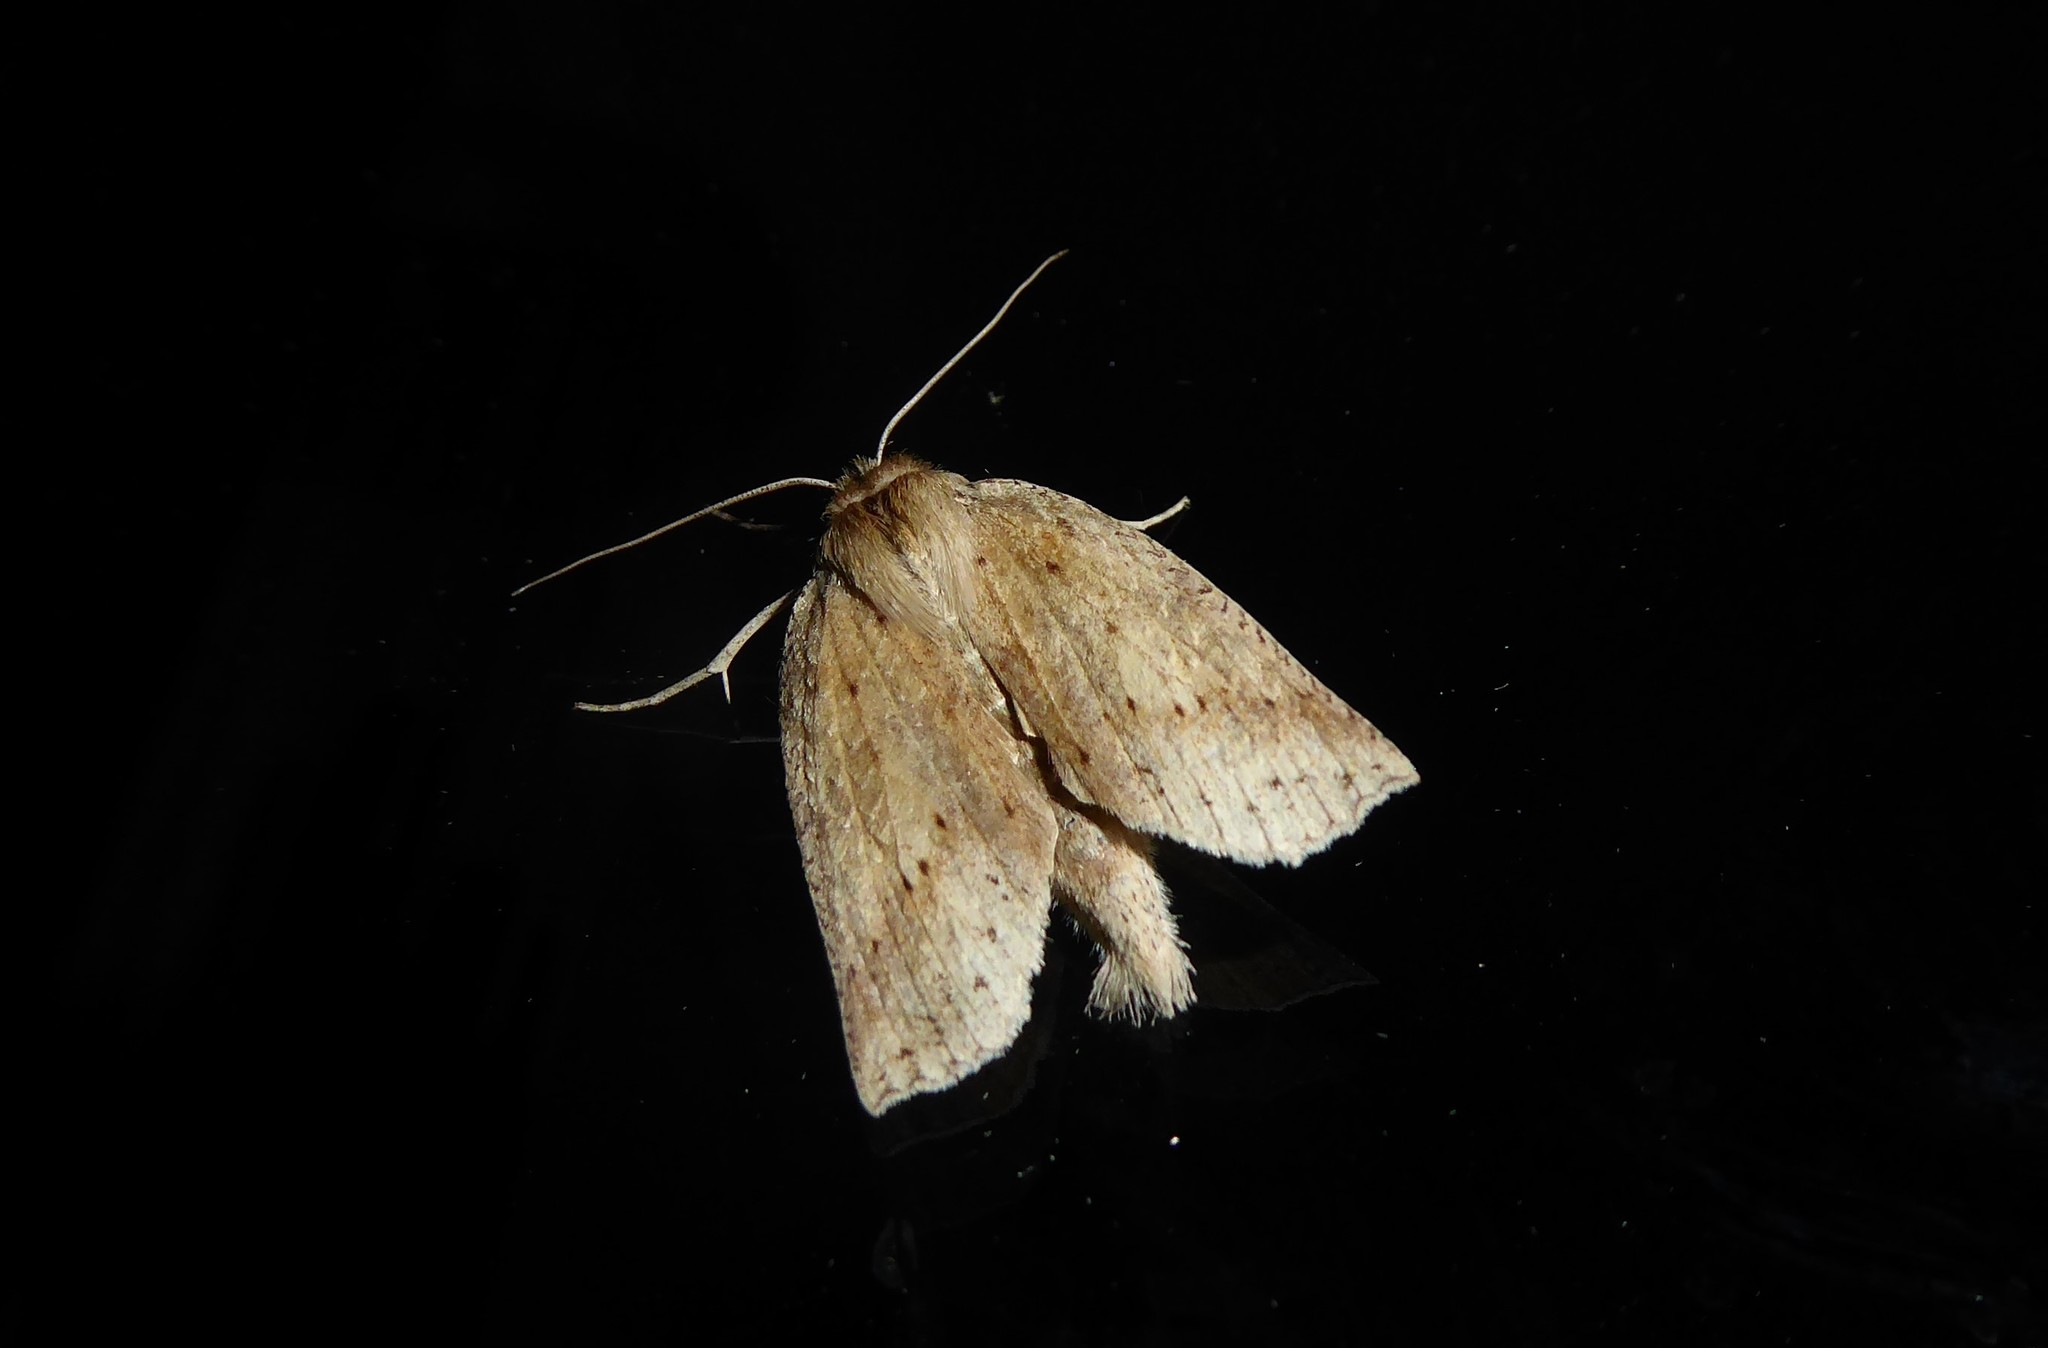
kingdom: Animalia
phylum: Arthropoda
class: Insecta
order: Lepidoptera
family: Geometridae
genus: Declana
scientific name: Declana leptomera
